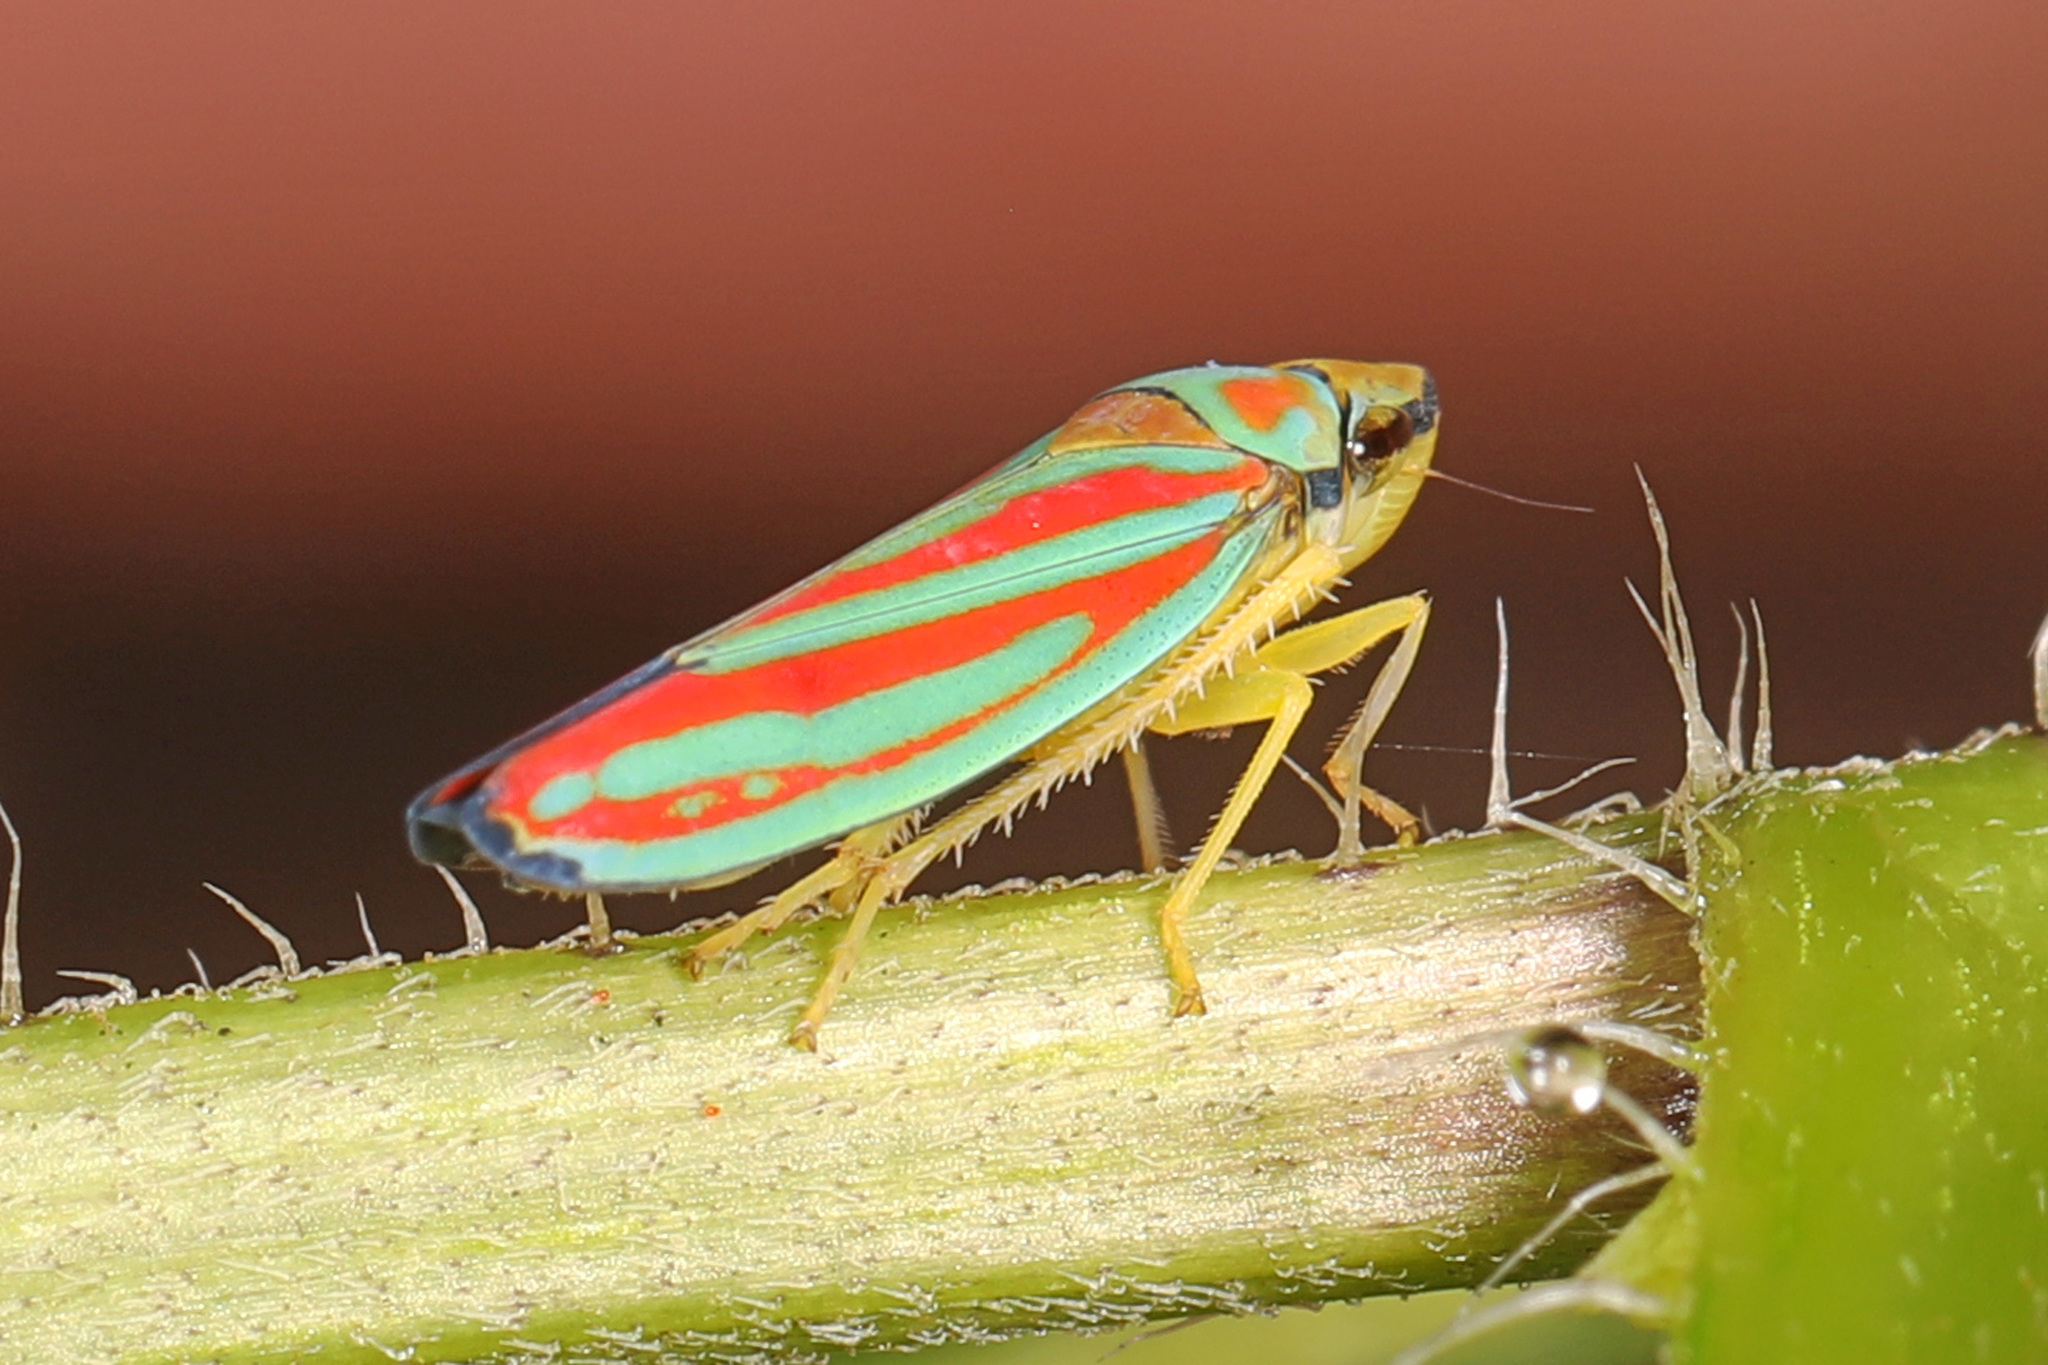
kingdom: Animalia
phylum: Arthropoda
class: Insecta
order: Hemiptera
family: Cicadellidae
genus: Graphocephala
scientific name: Graphocephala coccinea
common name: Candy-striped leafhopper
